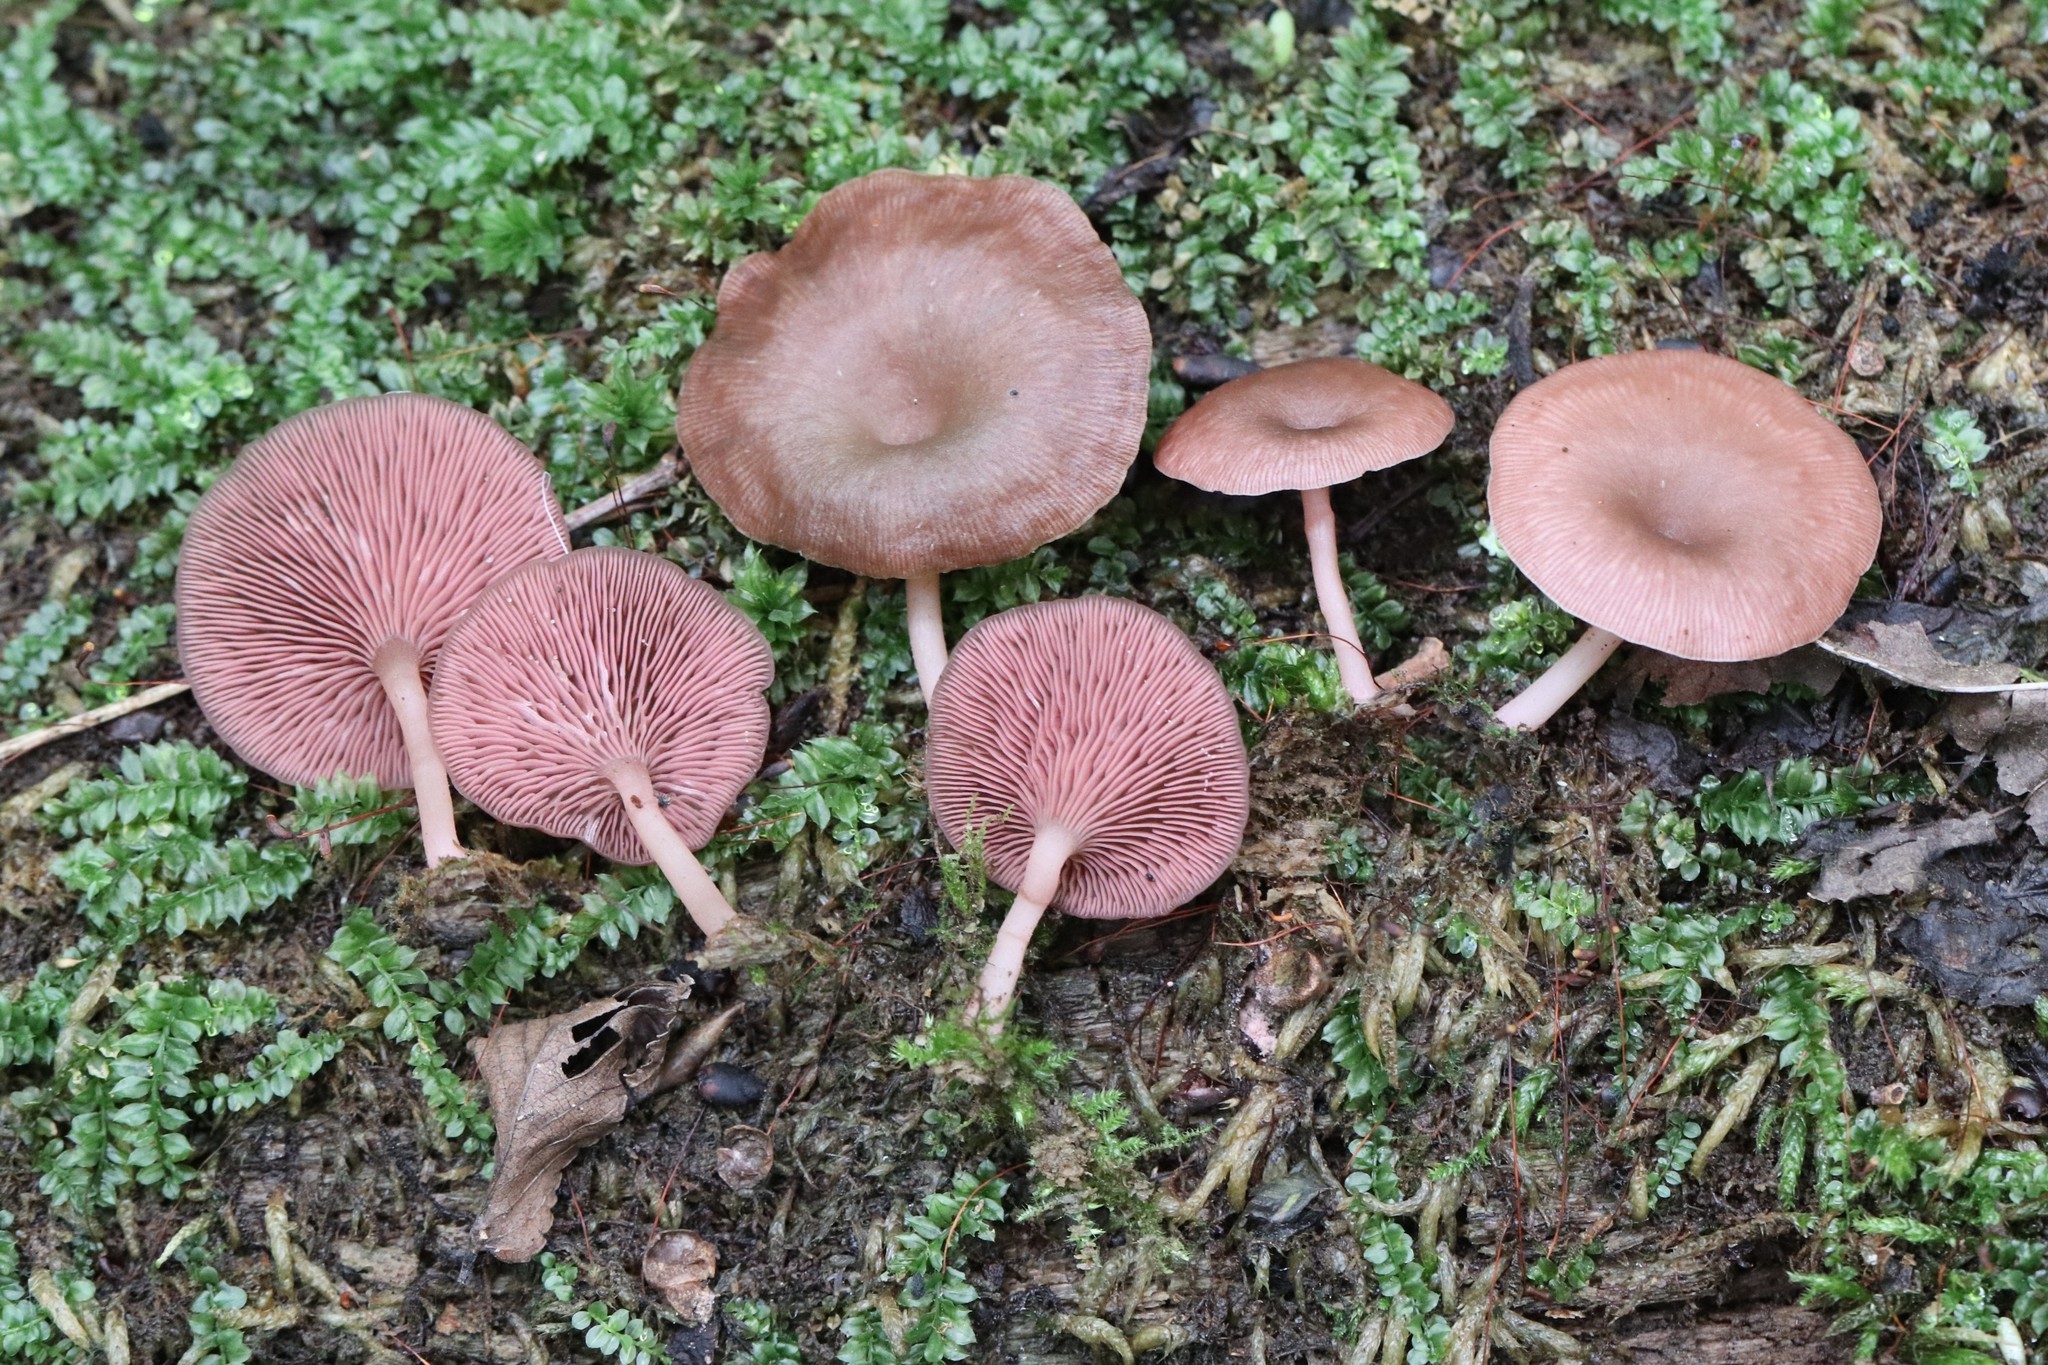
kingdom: Fungi
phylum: Basidiomycota
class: Agaricomycetes
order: Agaricales
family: Hygrophoraceae
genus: Arrhenia
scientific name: Arrhenia discorosea
